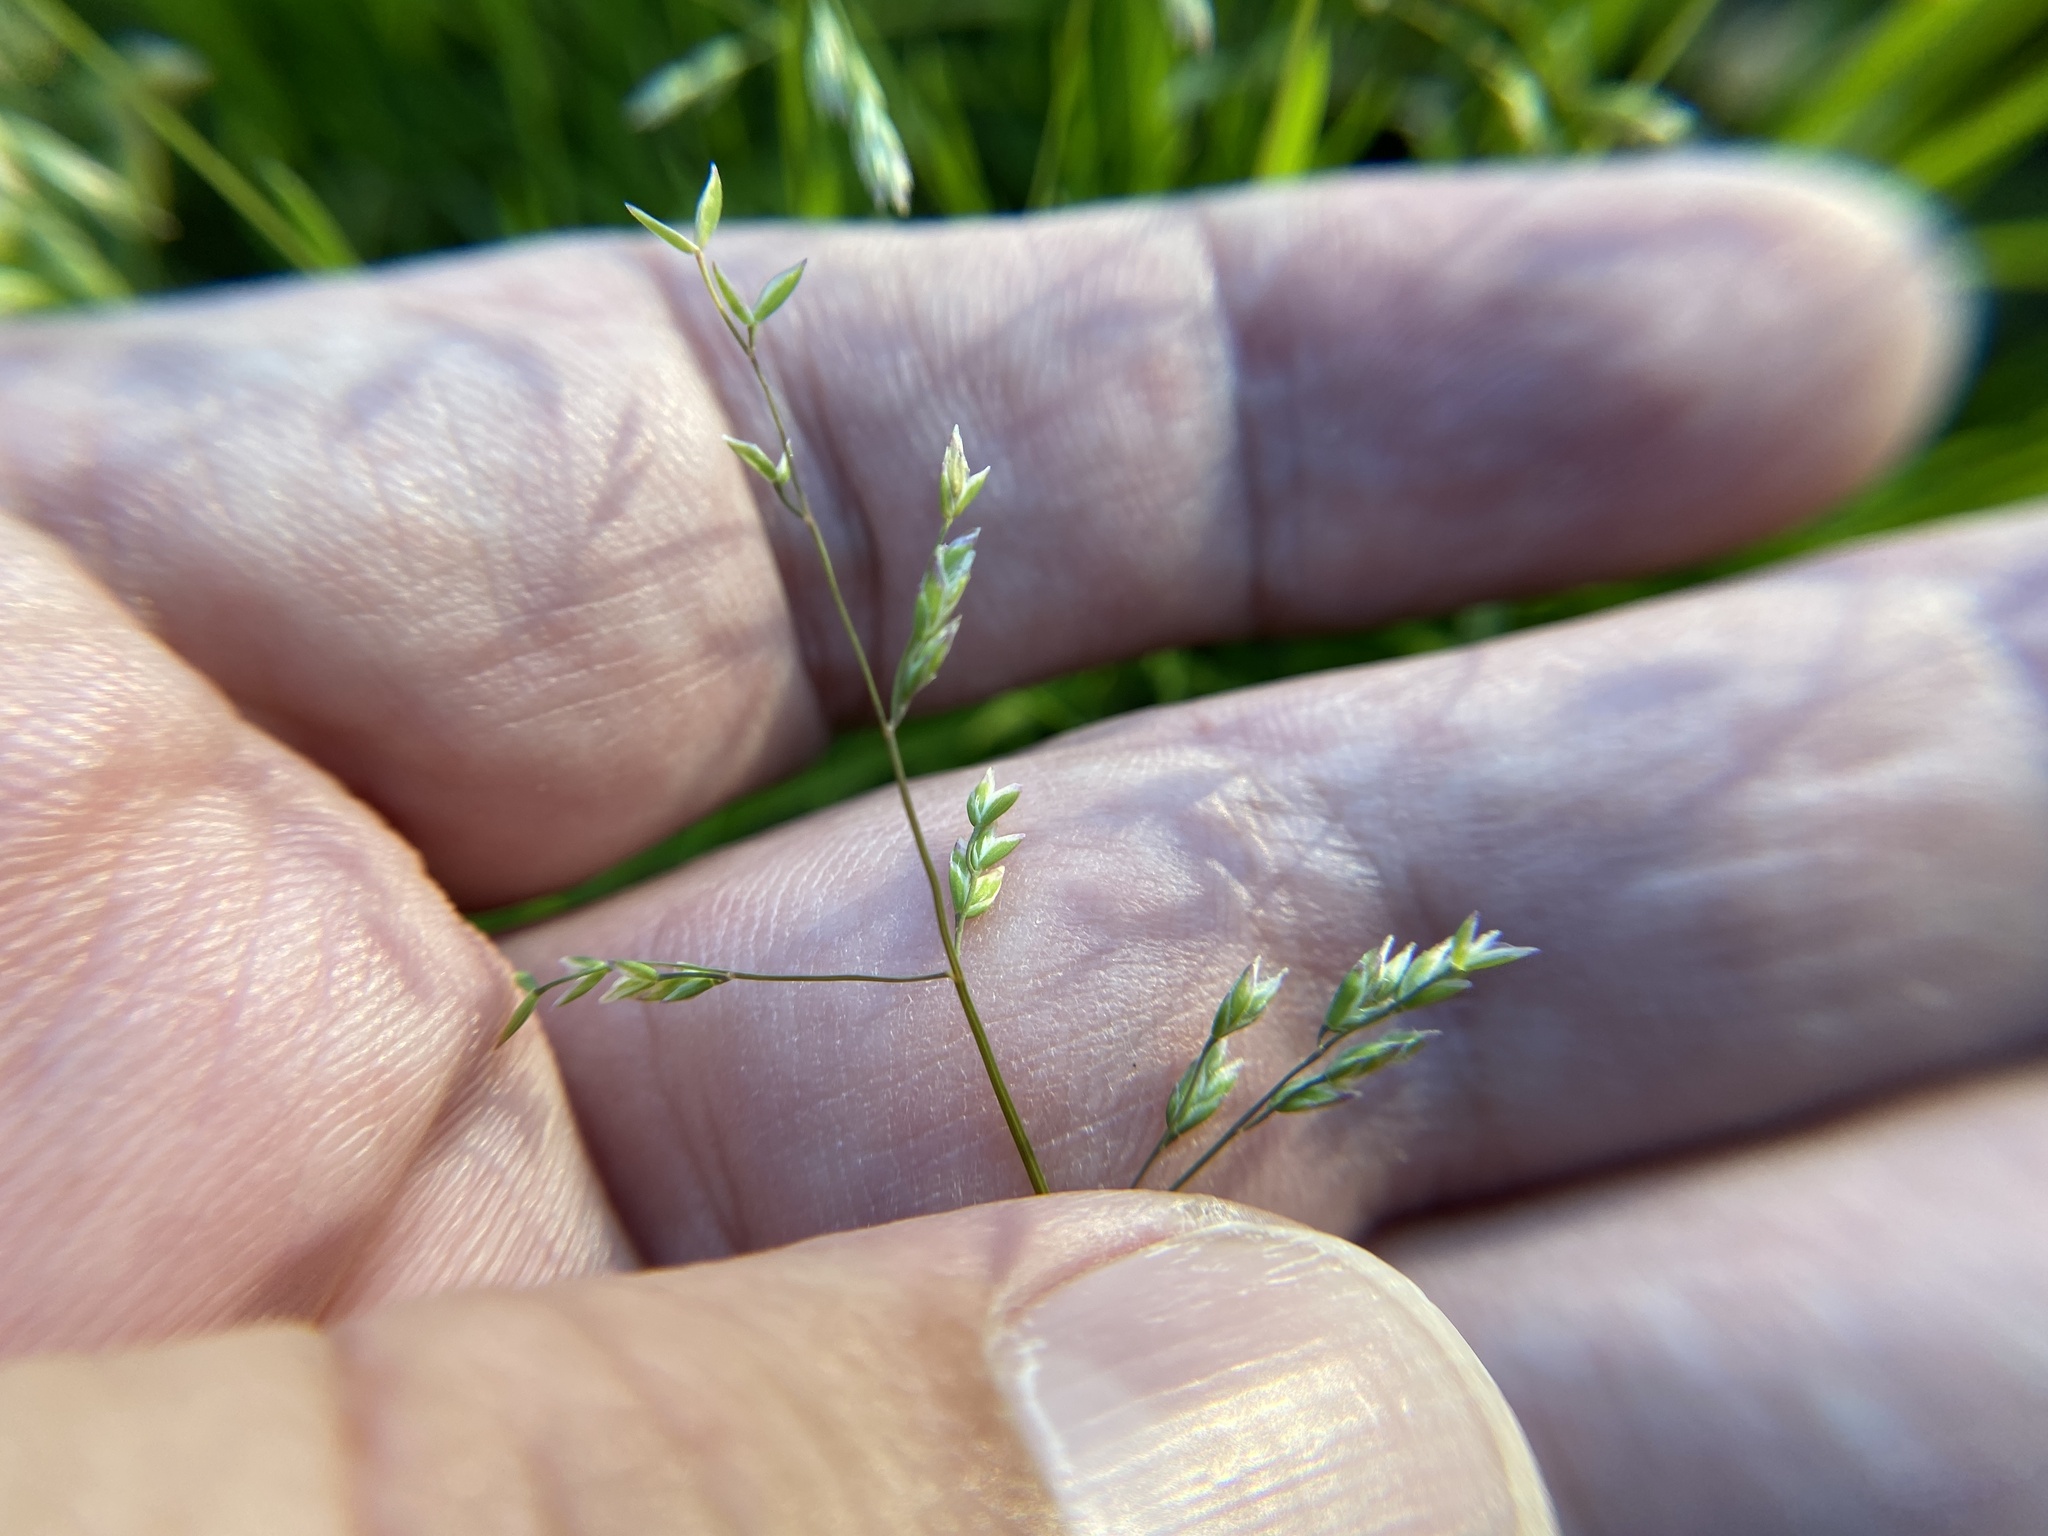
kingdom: Plantae
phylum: Tracheophyta
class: Liliopsida
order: Poales
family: Poaceae
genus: Poa
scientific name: Poa annua
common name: Annual bluegrass
